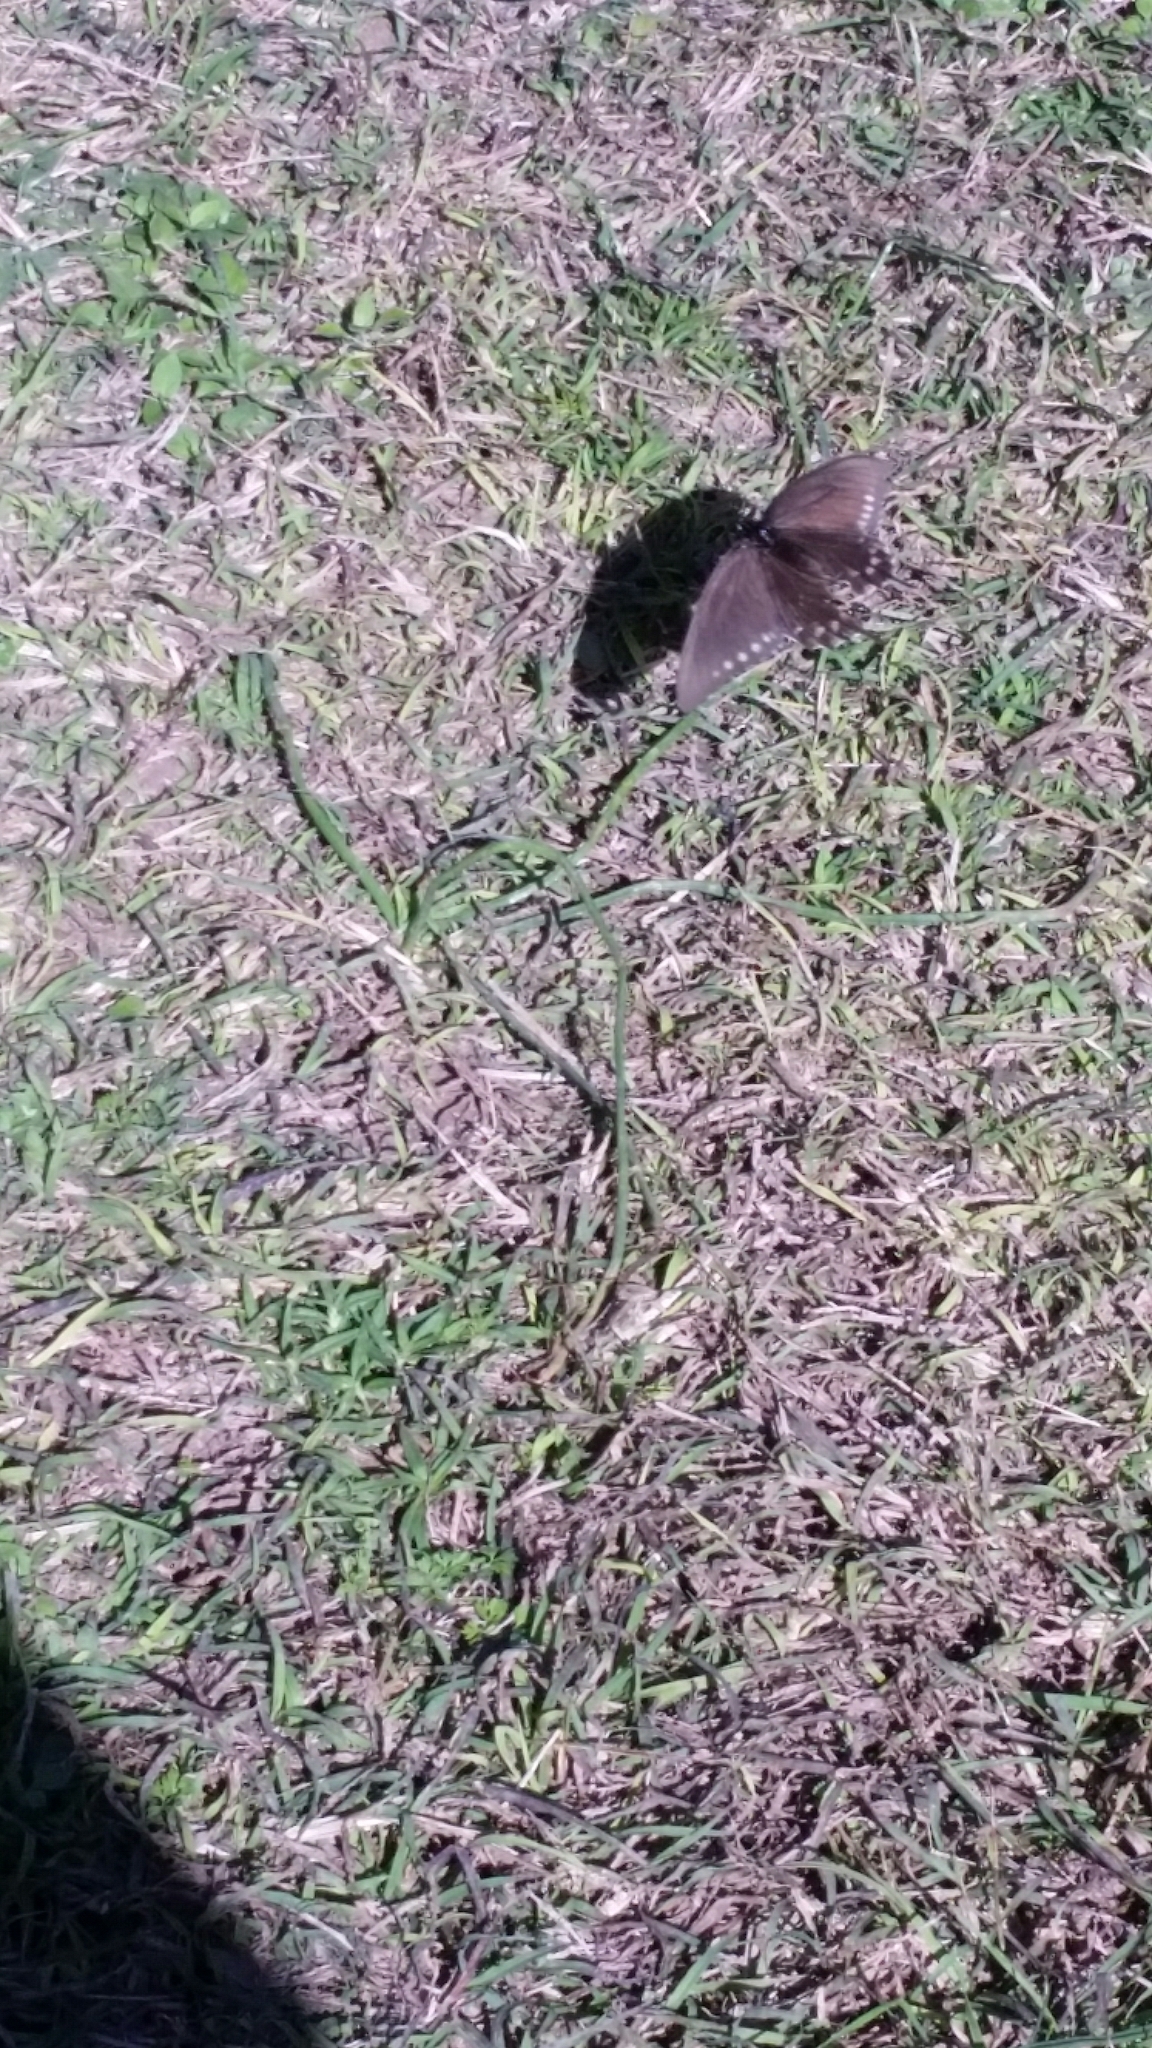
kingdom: Animalia
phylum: Arthropoda
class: Insecta
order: Lepidoptera
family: Papilionidae
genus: Battus
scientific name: Battus philenor
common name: Pipevine swallowtail
